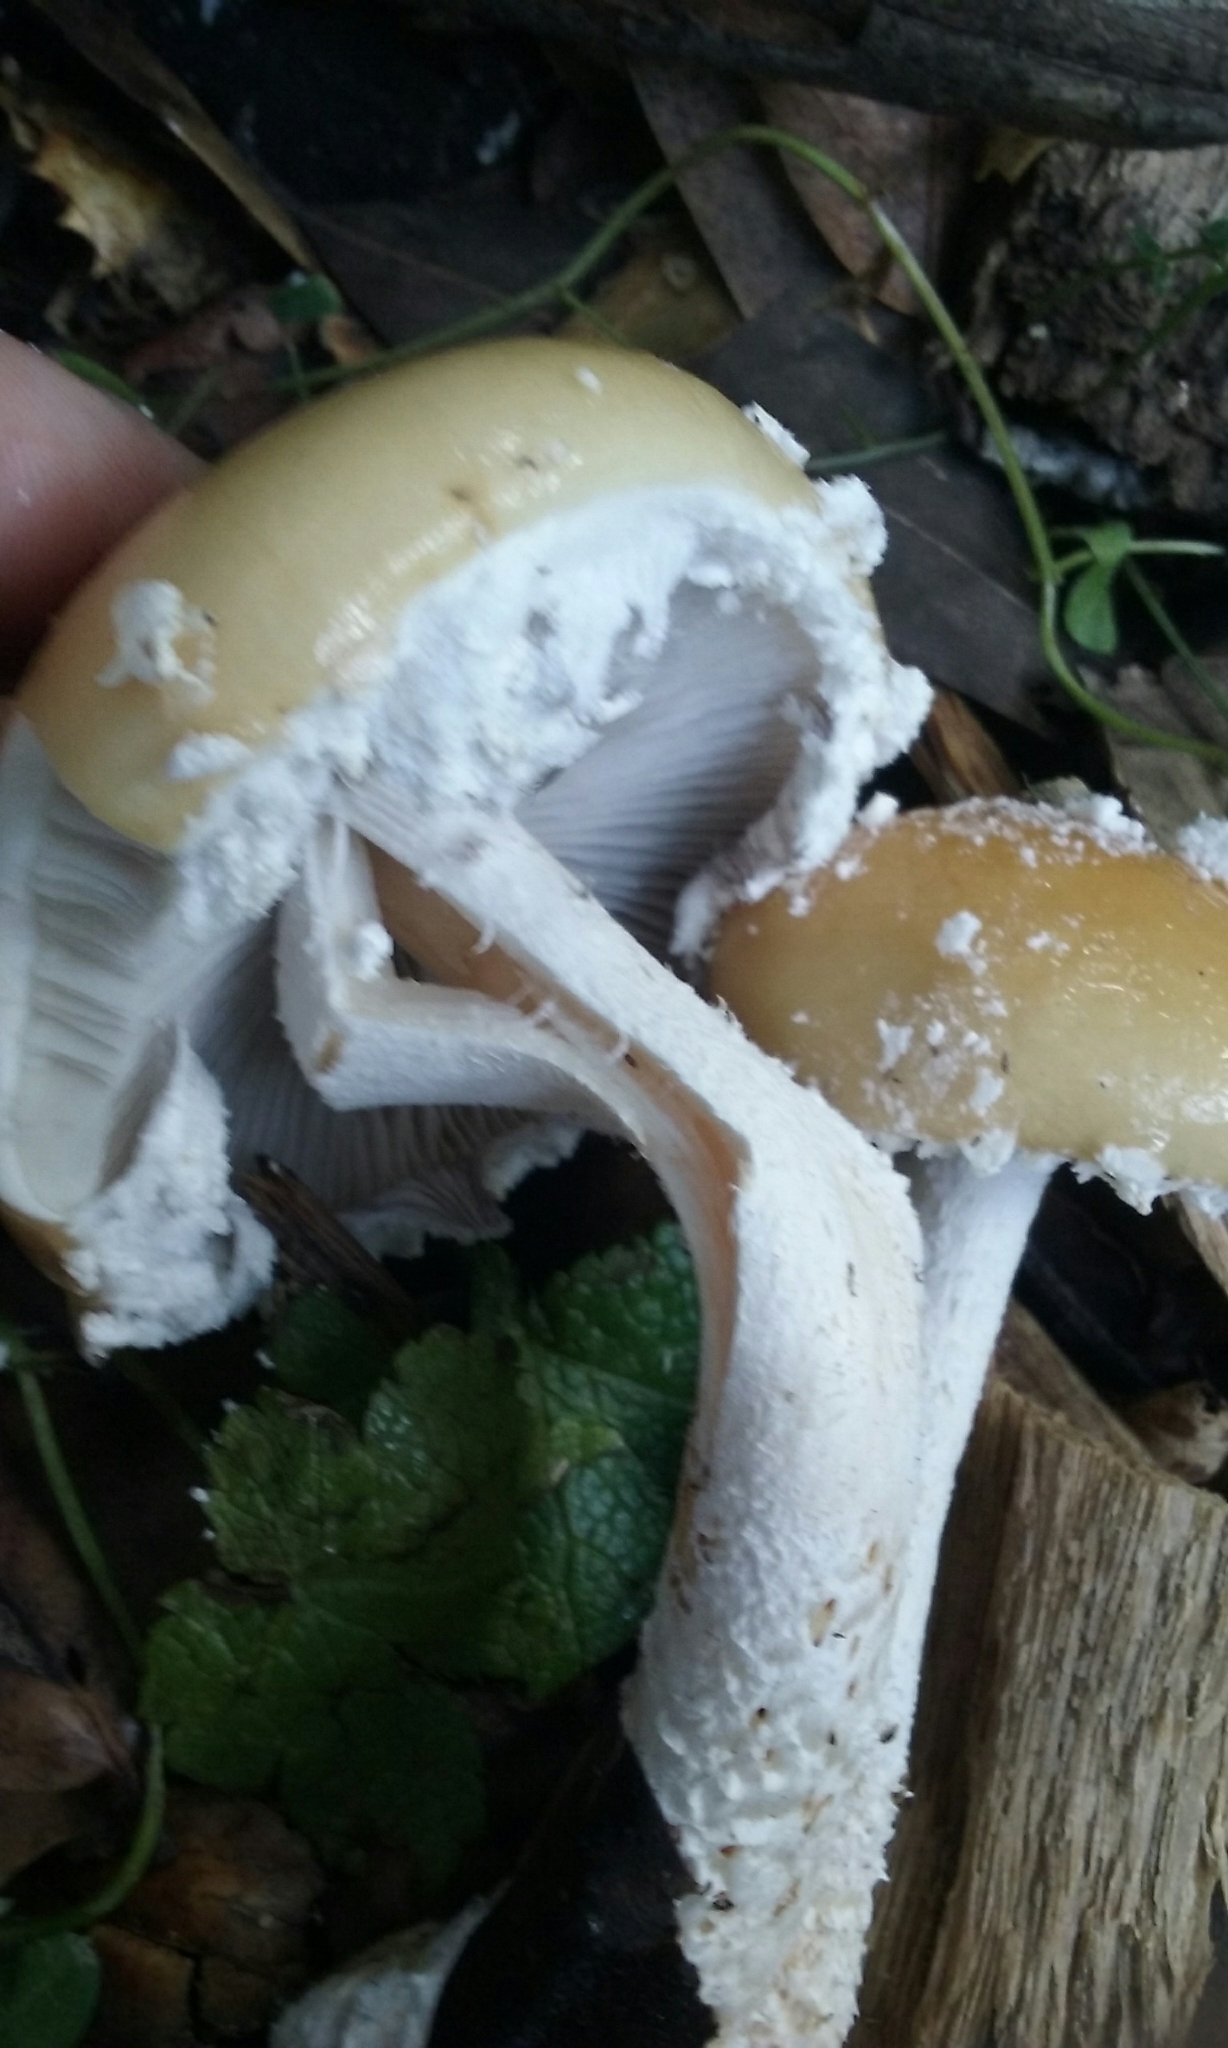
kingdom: Fungi
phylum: Basidiomycota
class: Agaricomycetes
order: Agaricales
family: Strophariaceae
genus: Stropharia
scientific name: Stropharia ambigua
